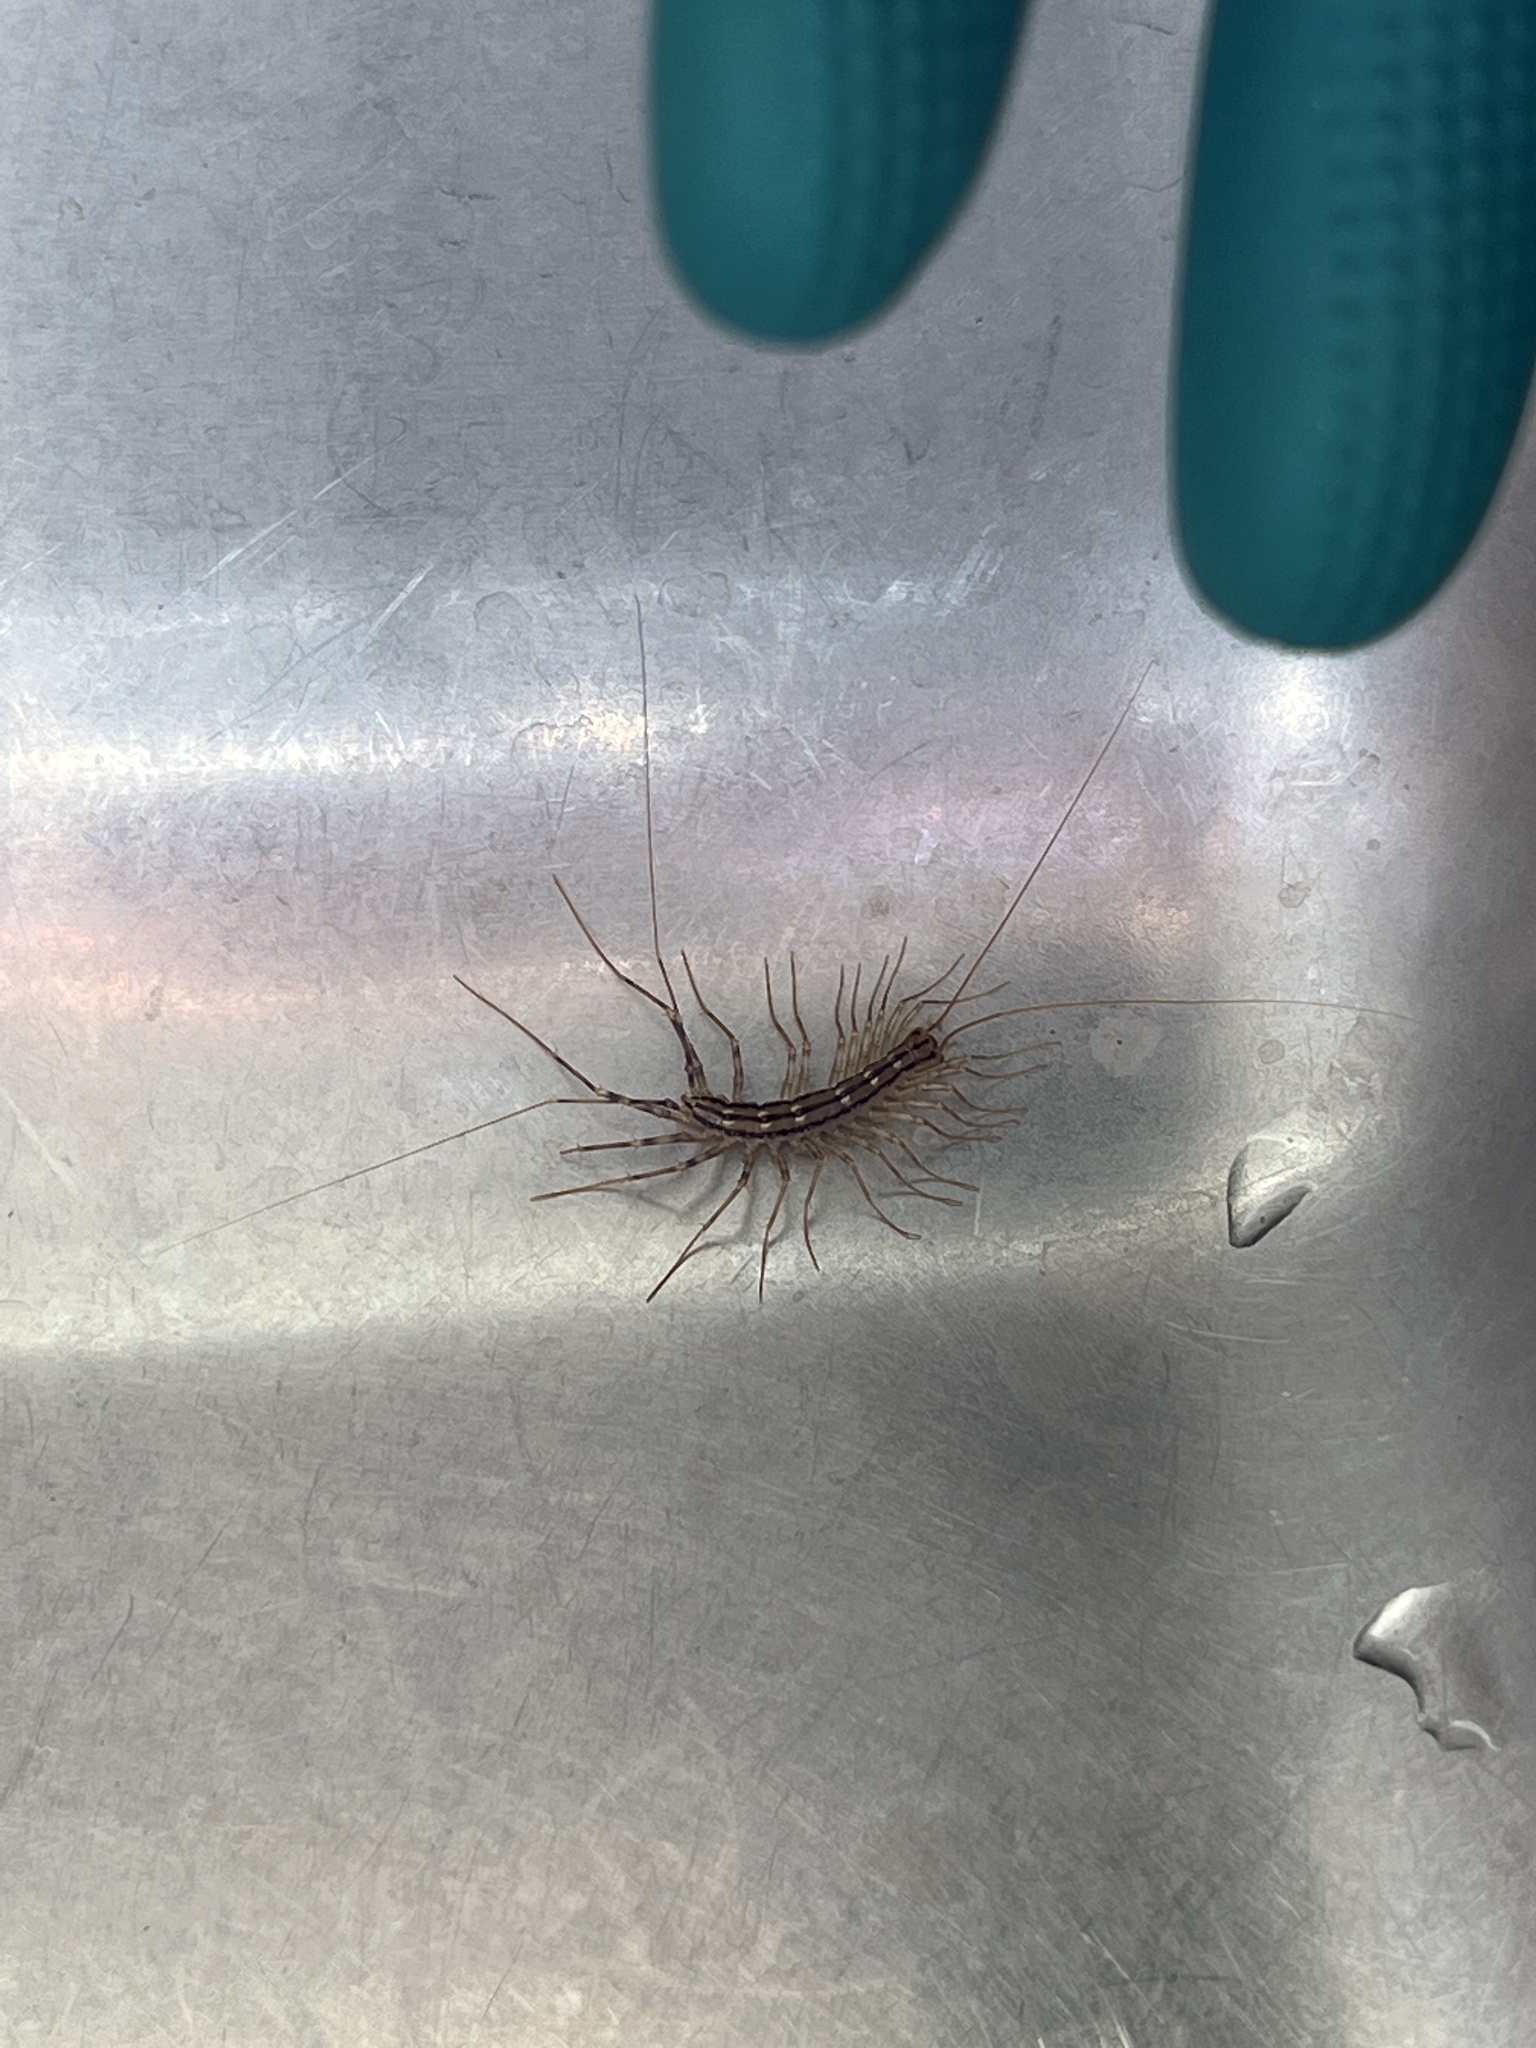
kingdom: Animalia
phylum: Arthropoda
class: Chilopoda
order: Scutigeromorpha
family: Scutigeridae
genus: Scutigera
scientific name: Scutigera coleoptrata
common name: House centipede
